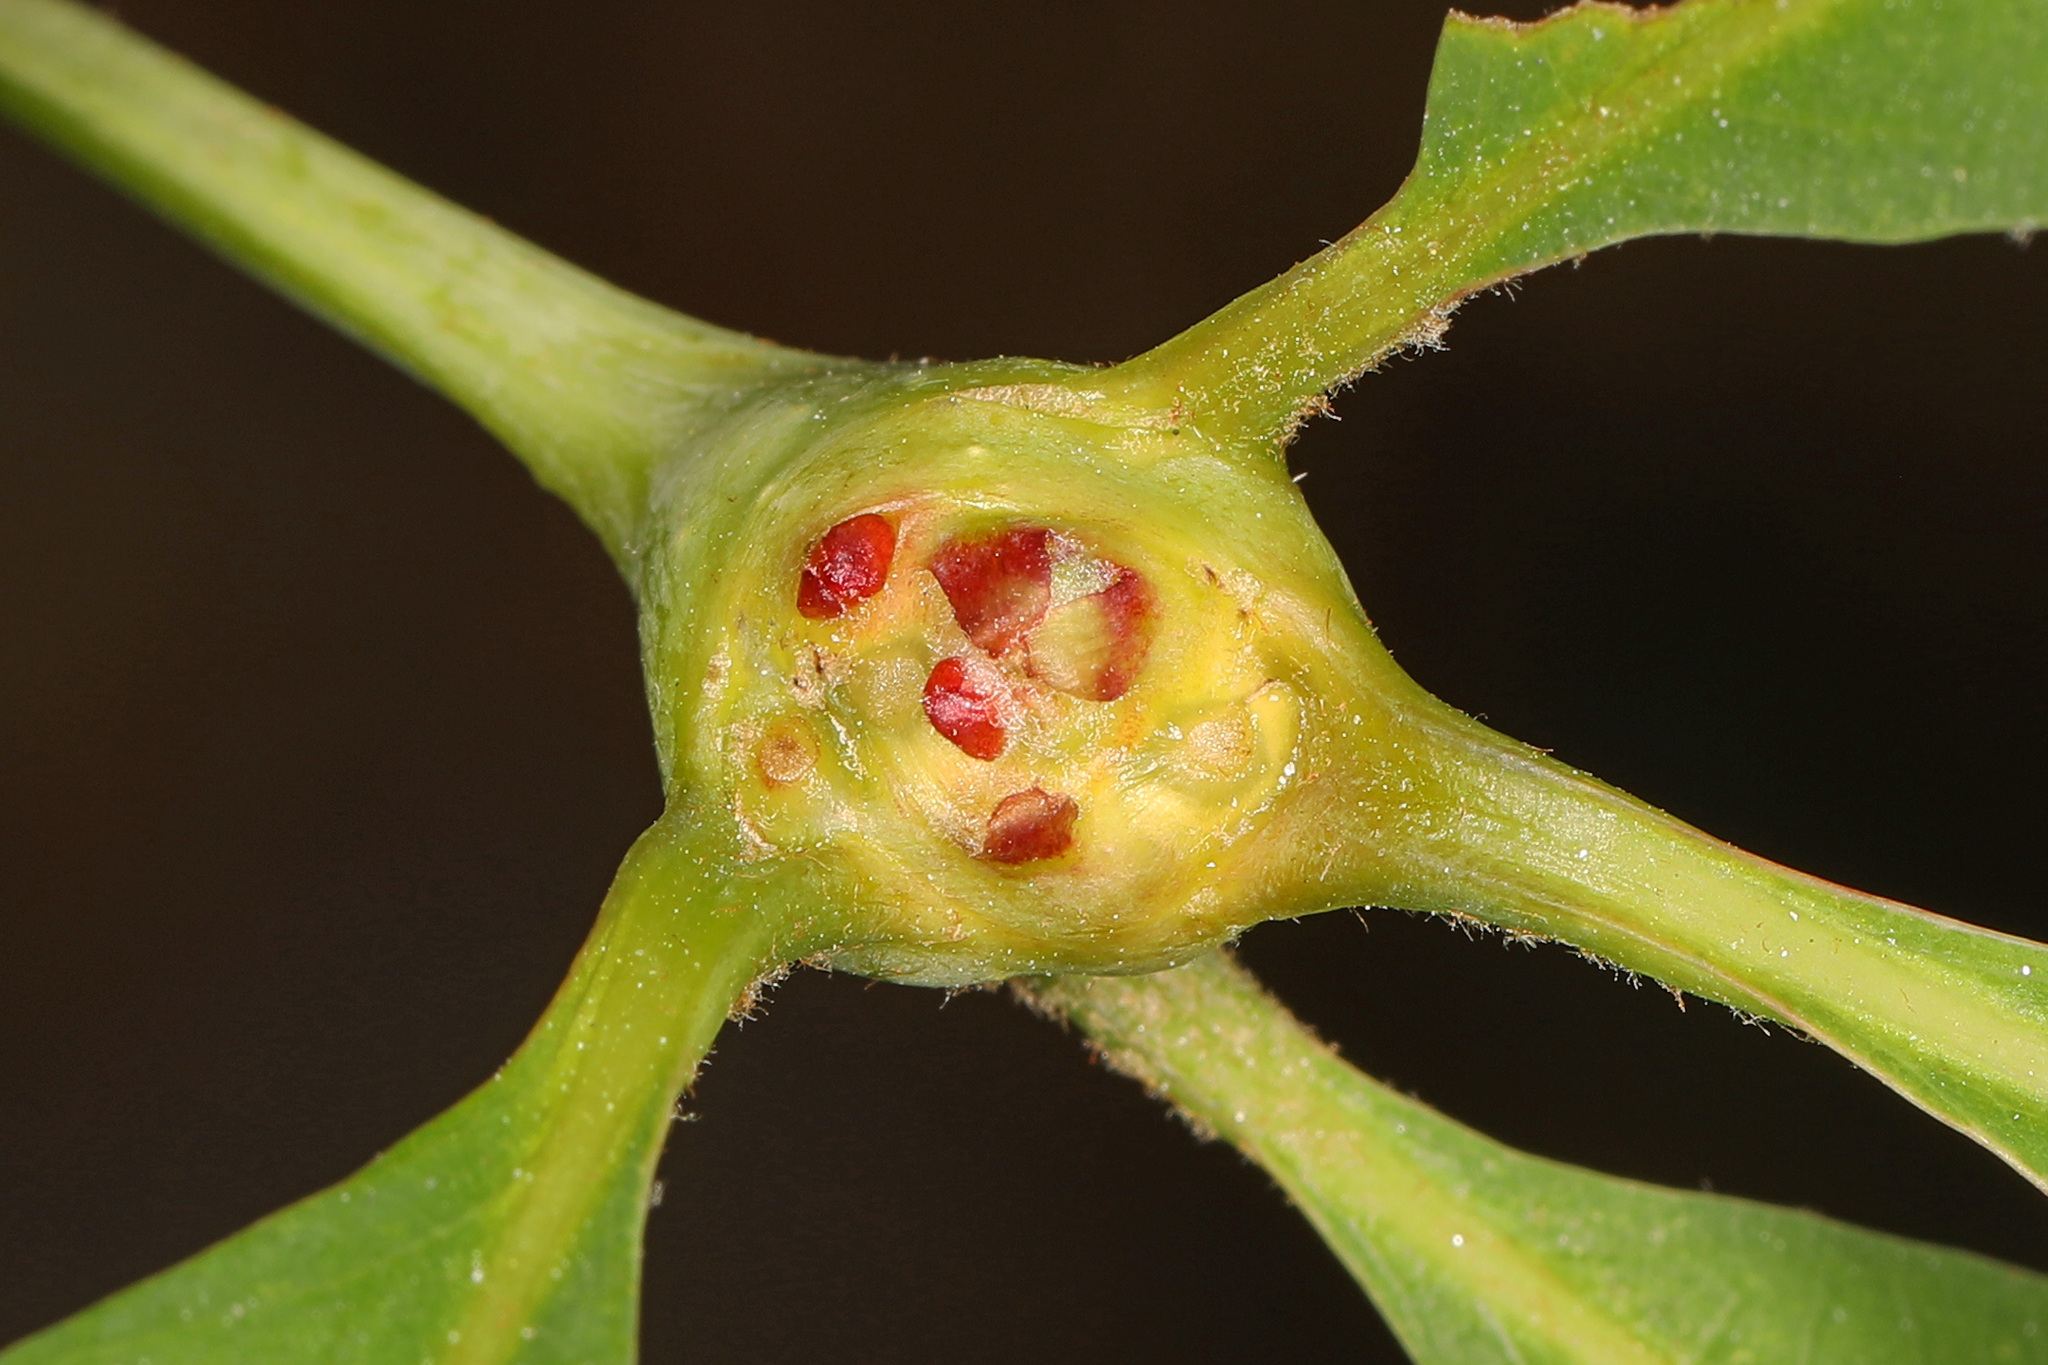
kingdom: Animalia
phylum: Arthropoda
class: Insecta
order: Hymenoptera
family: Cynipidae
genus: Callirhytis
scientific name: Callirhytis clavula
